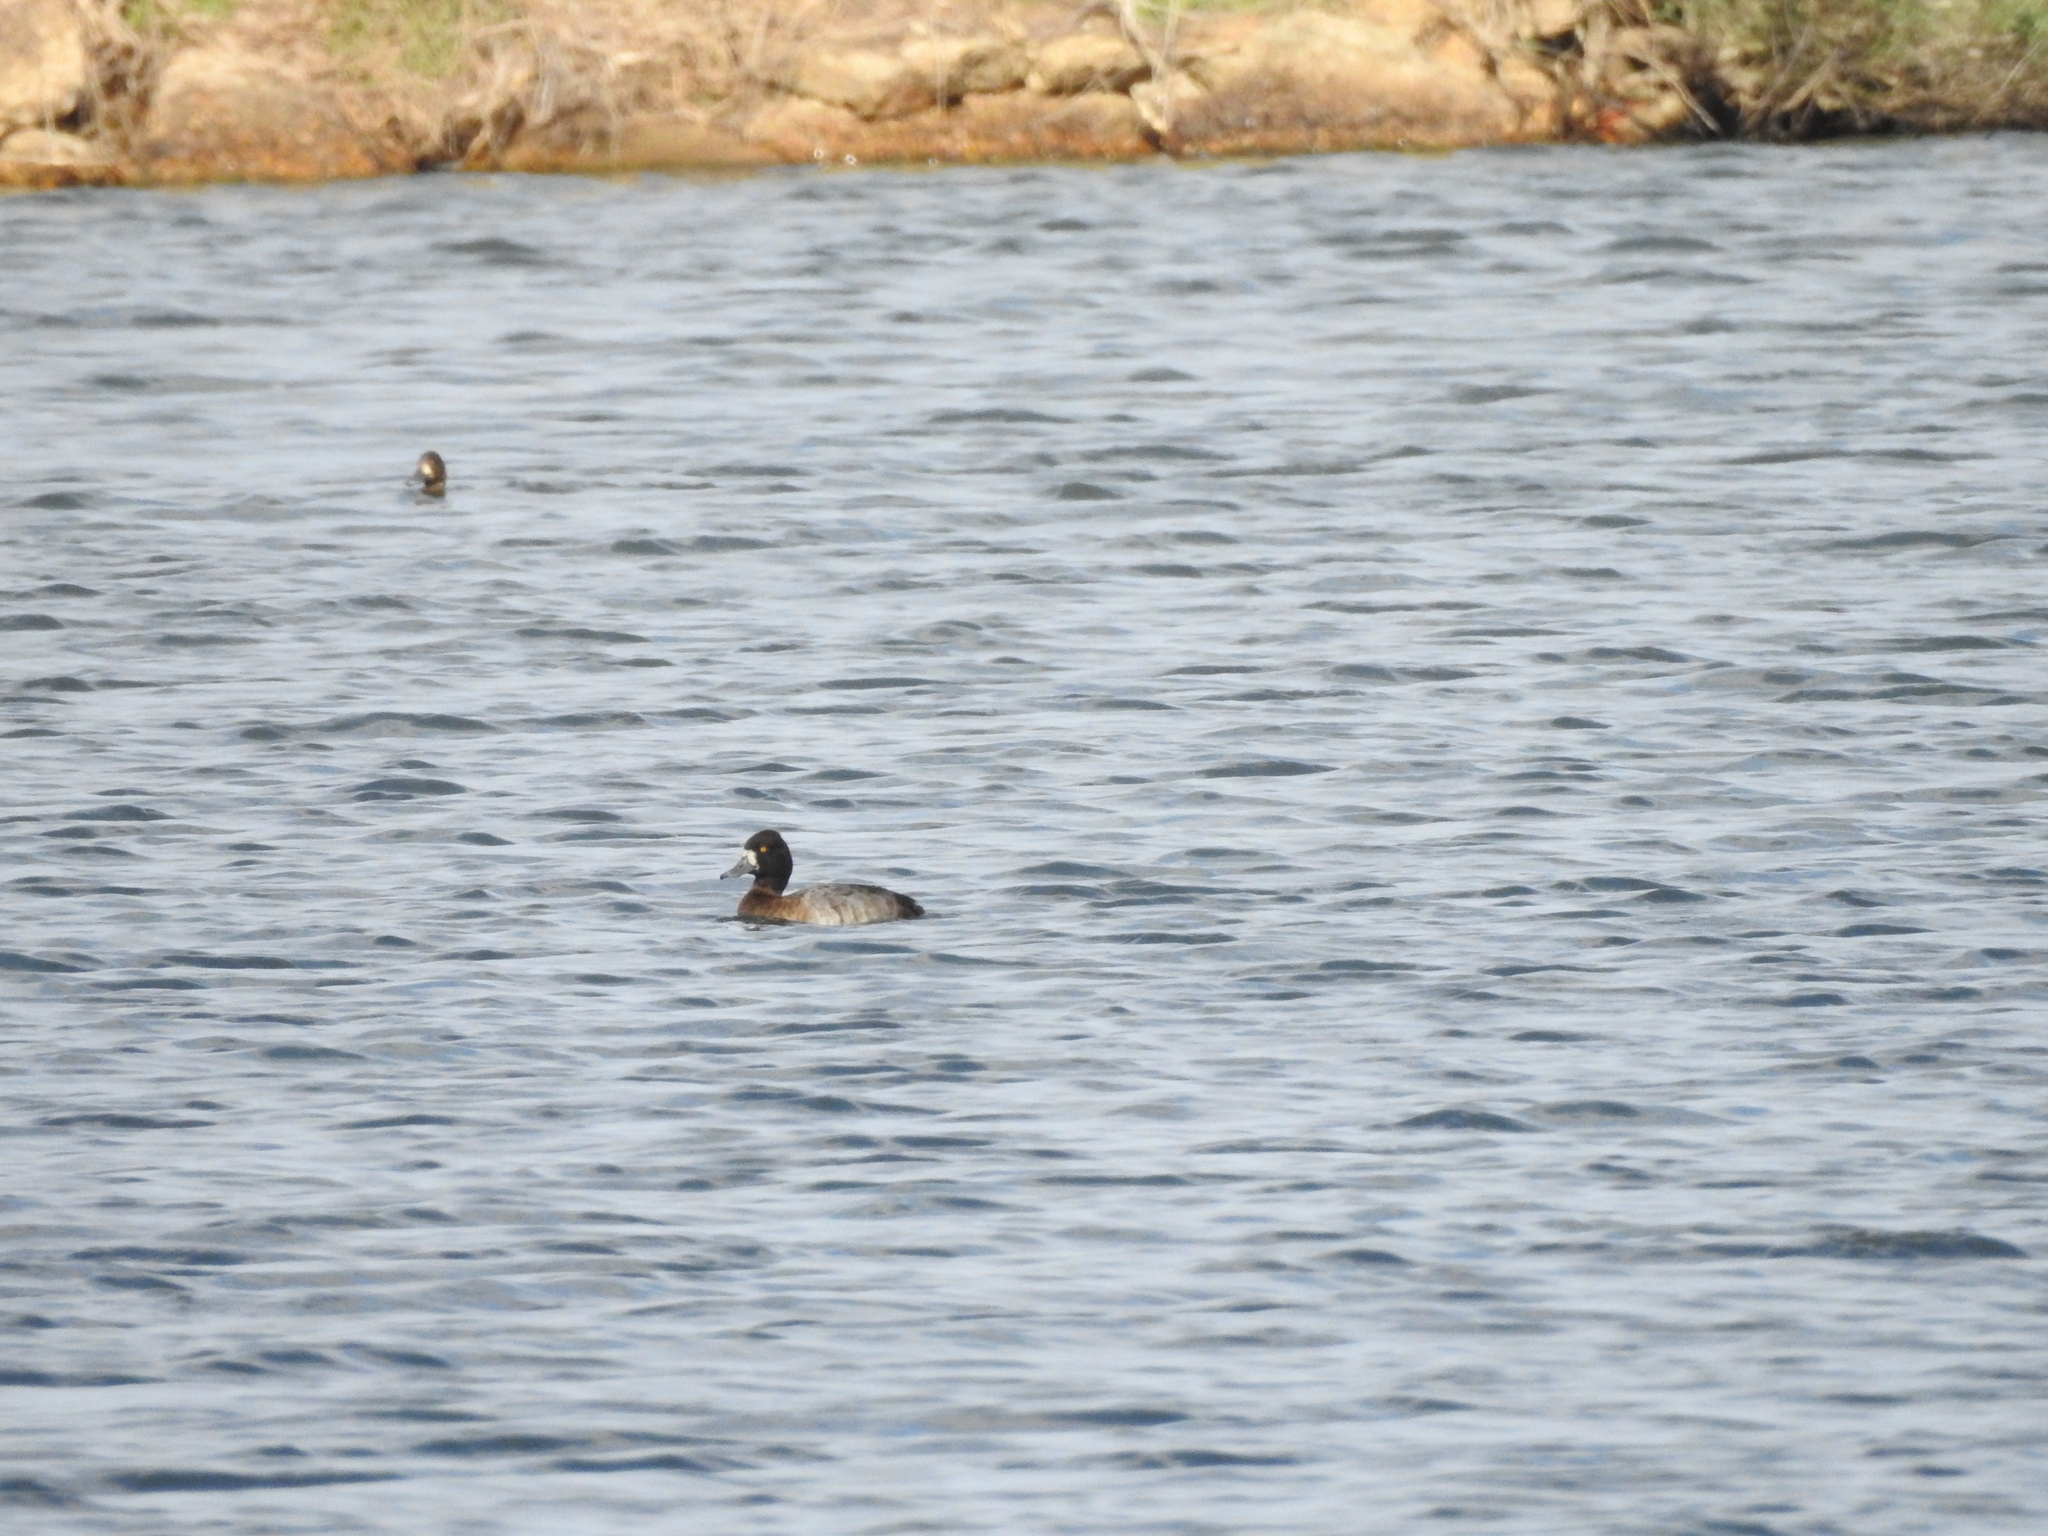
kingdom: Animalia
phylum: Chordata
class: Aves
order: Anseriformes
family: Anatidae
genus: Aythya
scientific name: Aythya affinis
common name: Lesser scaup
